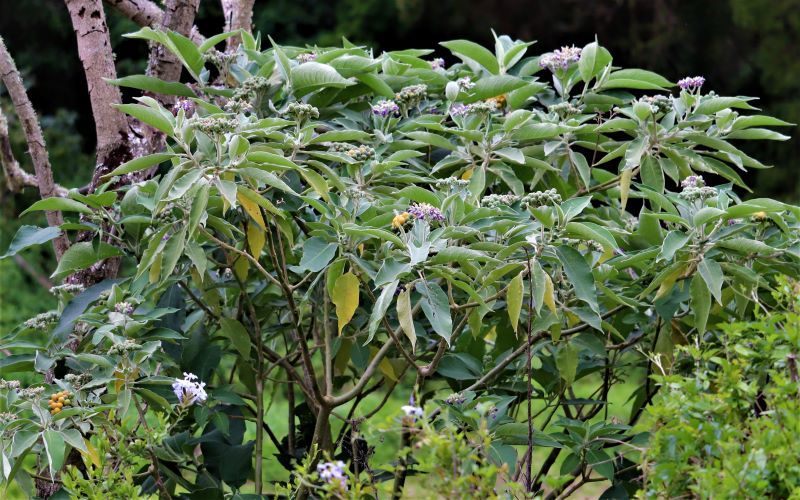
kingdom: Plantae
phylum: Tracheophyta
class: Magnoliopsida
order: Solanales
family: Solanaceae
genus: Solanum
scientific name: Solanum mauritianum
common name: Earleaf nightshade
